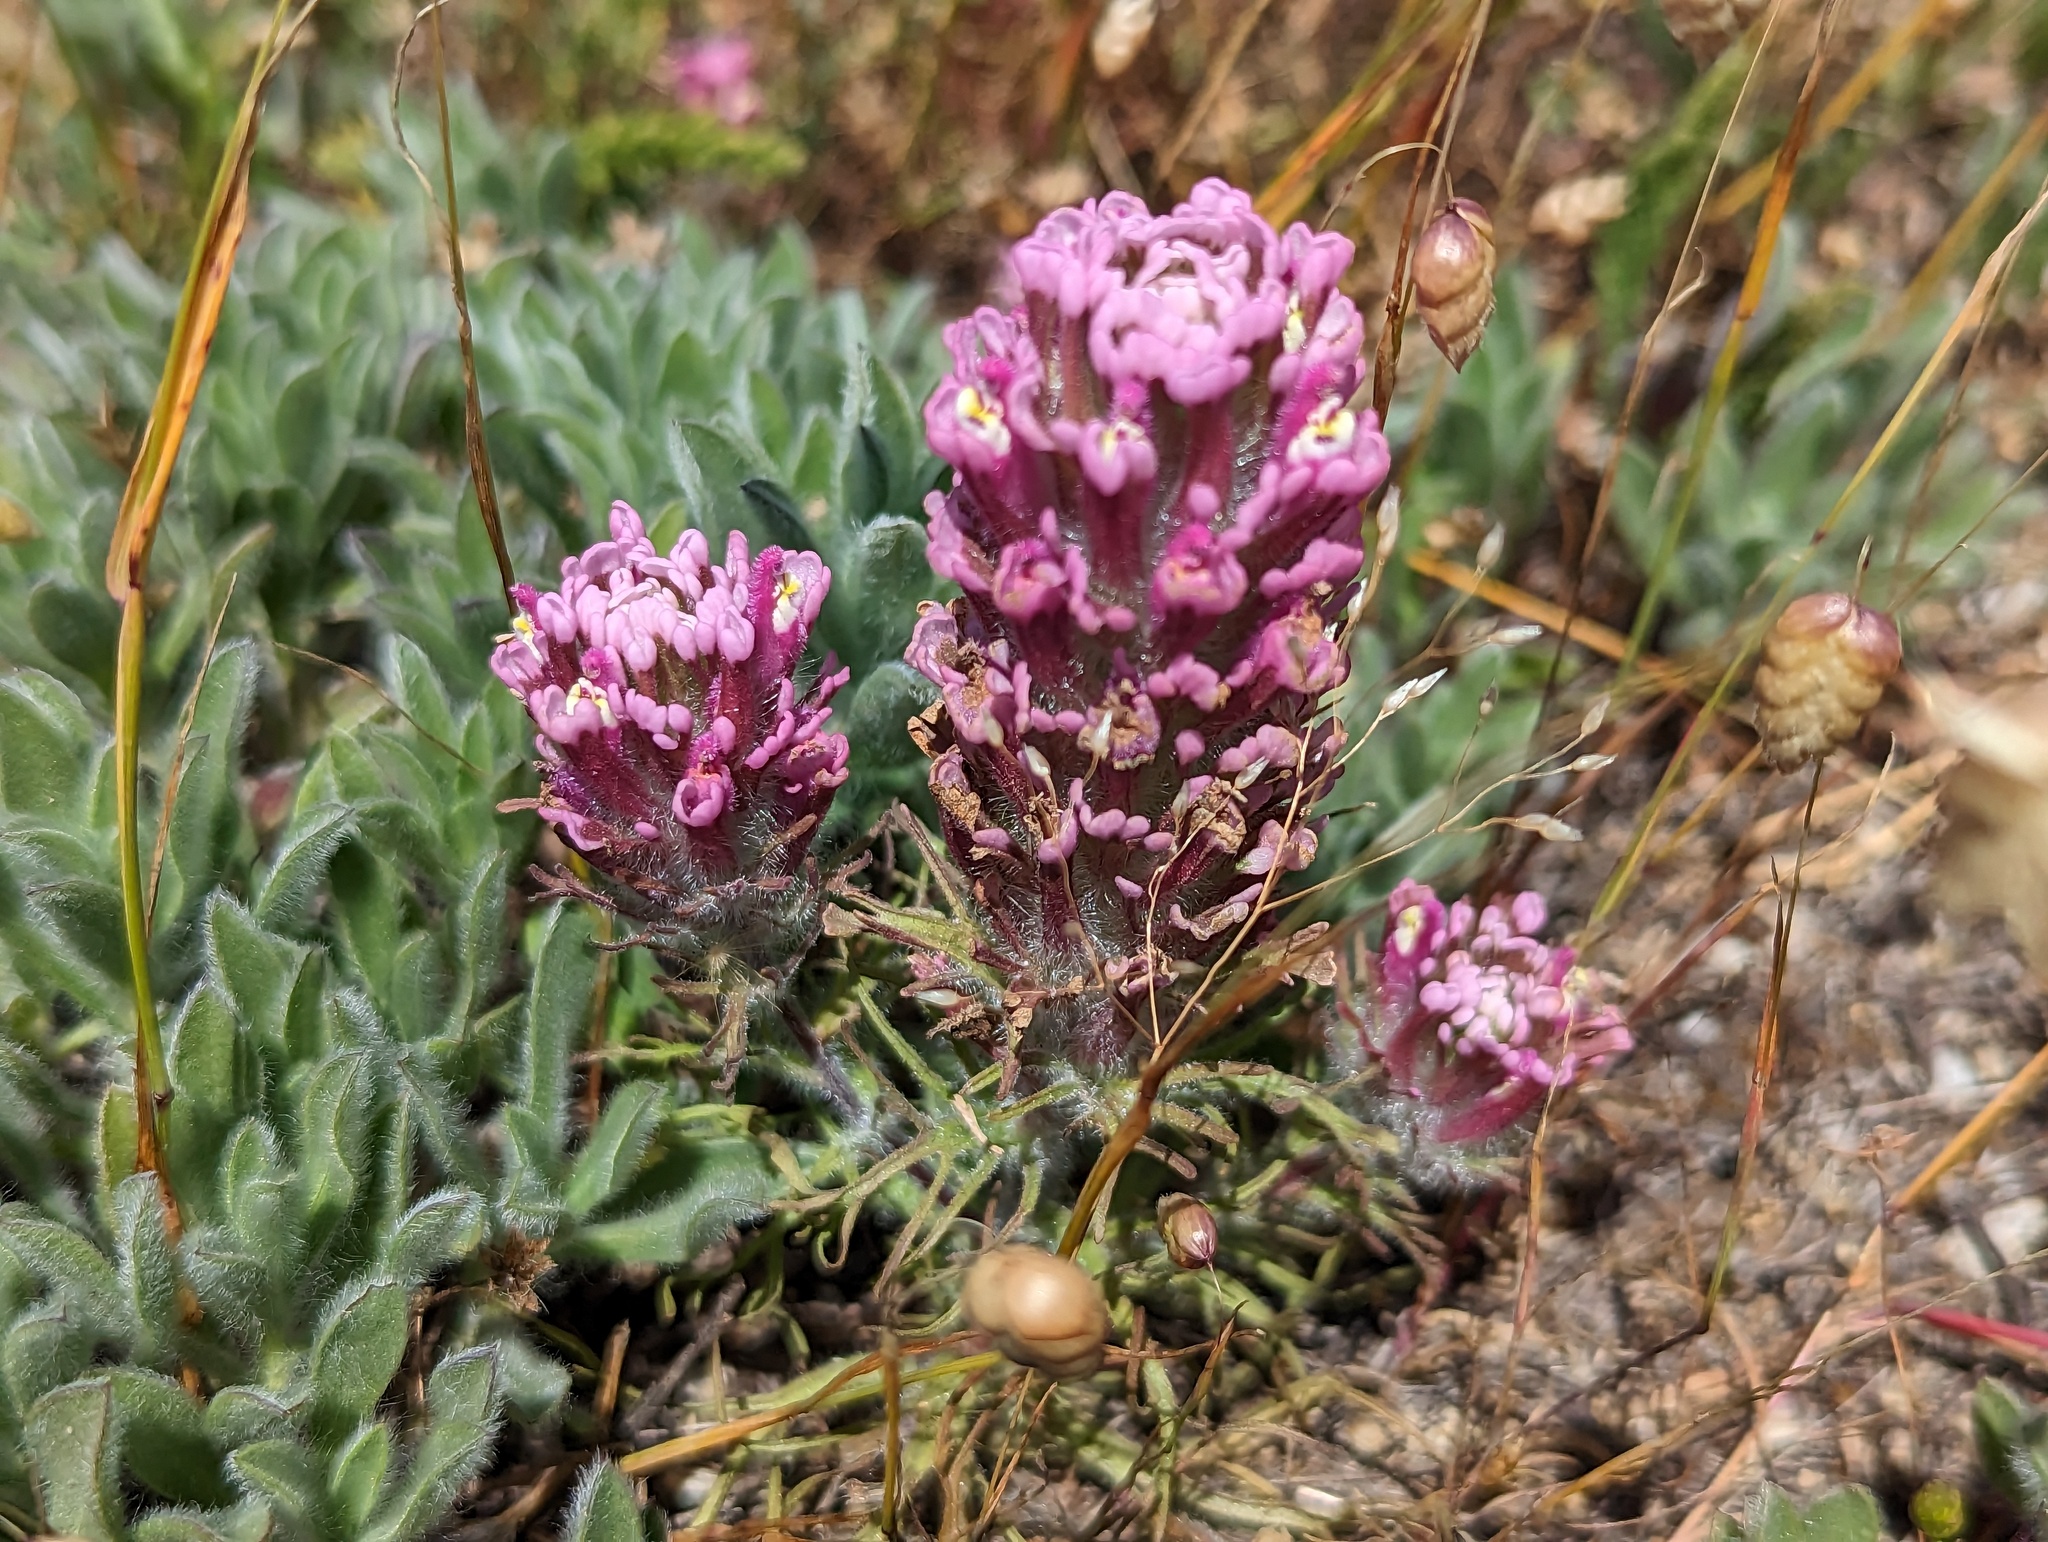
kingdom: Plantae
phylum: Tracheophyta
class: Magnoliopsida
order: Lamiales
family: Orobanchaceae
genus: Castilleja
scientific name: Castilleja exserta
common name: Purple owl-clover
